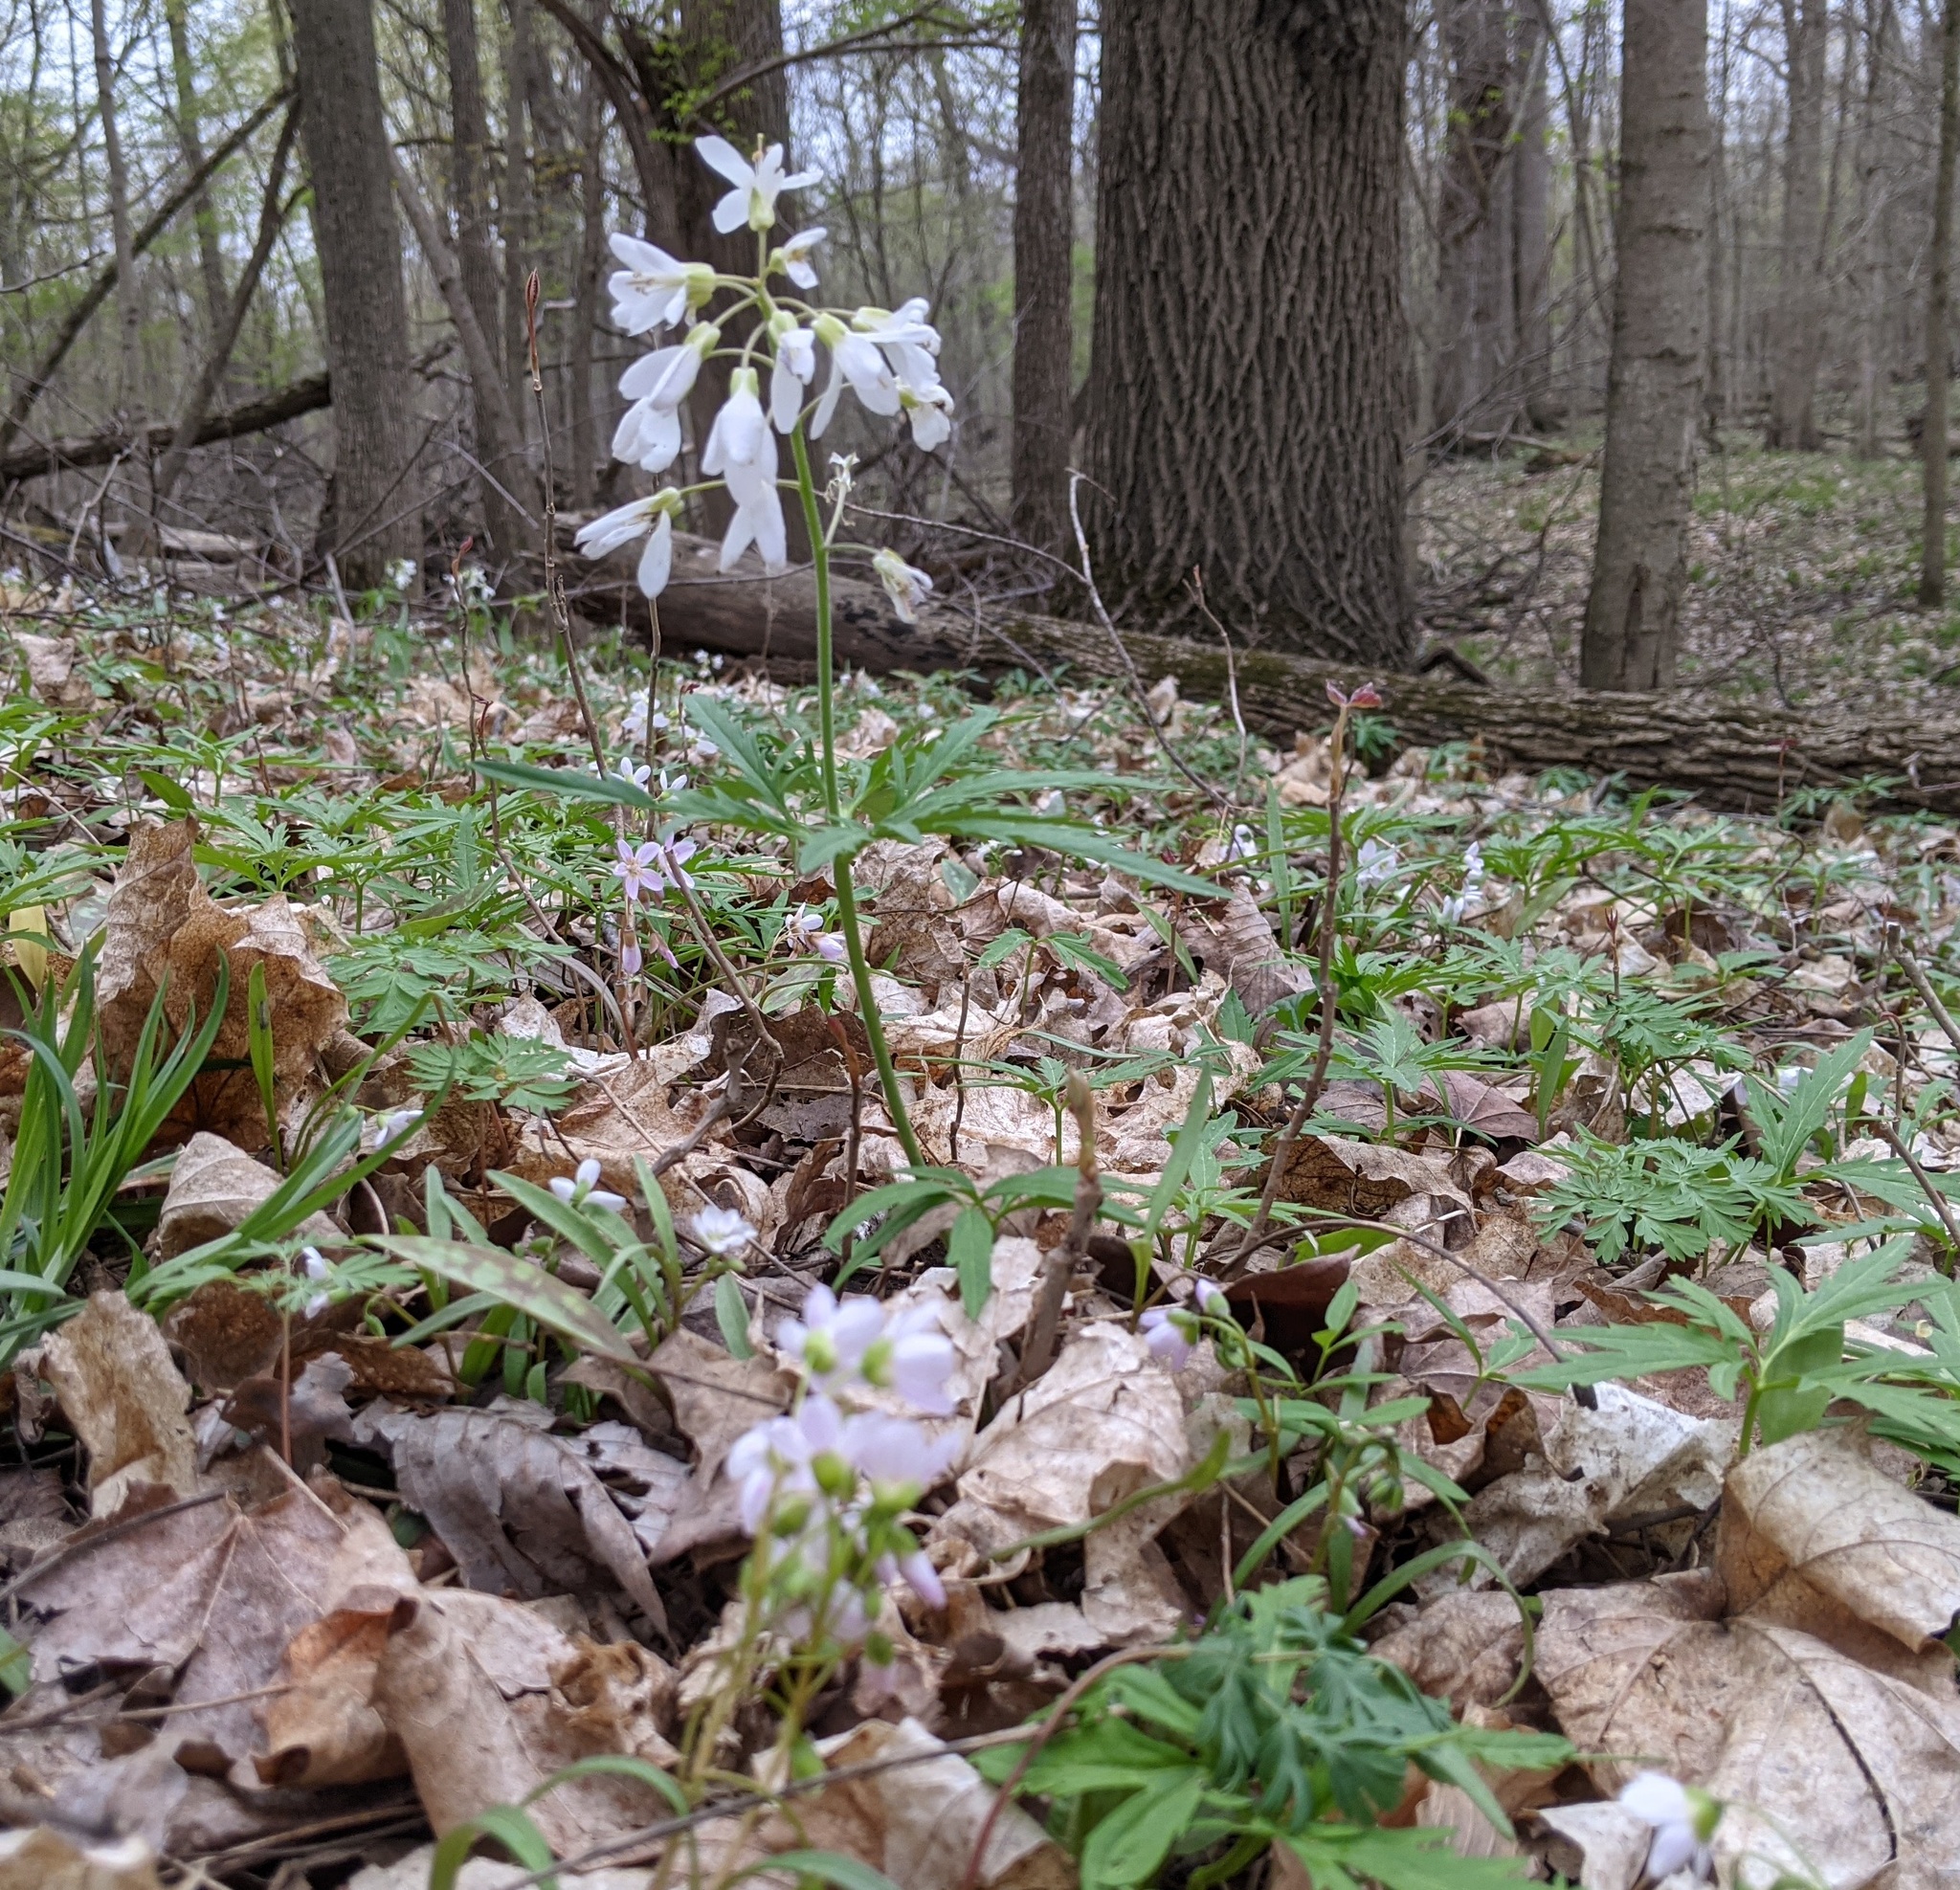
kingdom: Plantae
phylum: Tracheophyta
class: Magnoliopsida
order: Brassicales
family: Brassicaceae
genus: Cardamine
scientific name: Cardamine concatenata
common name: Cut-leaf toothcup
